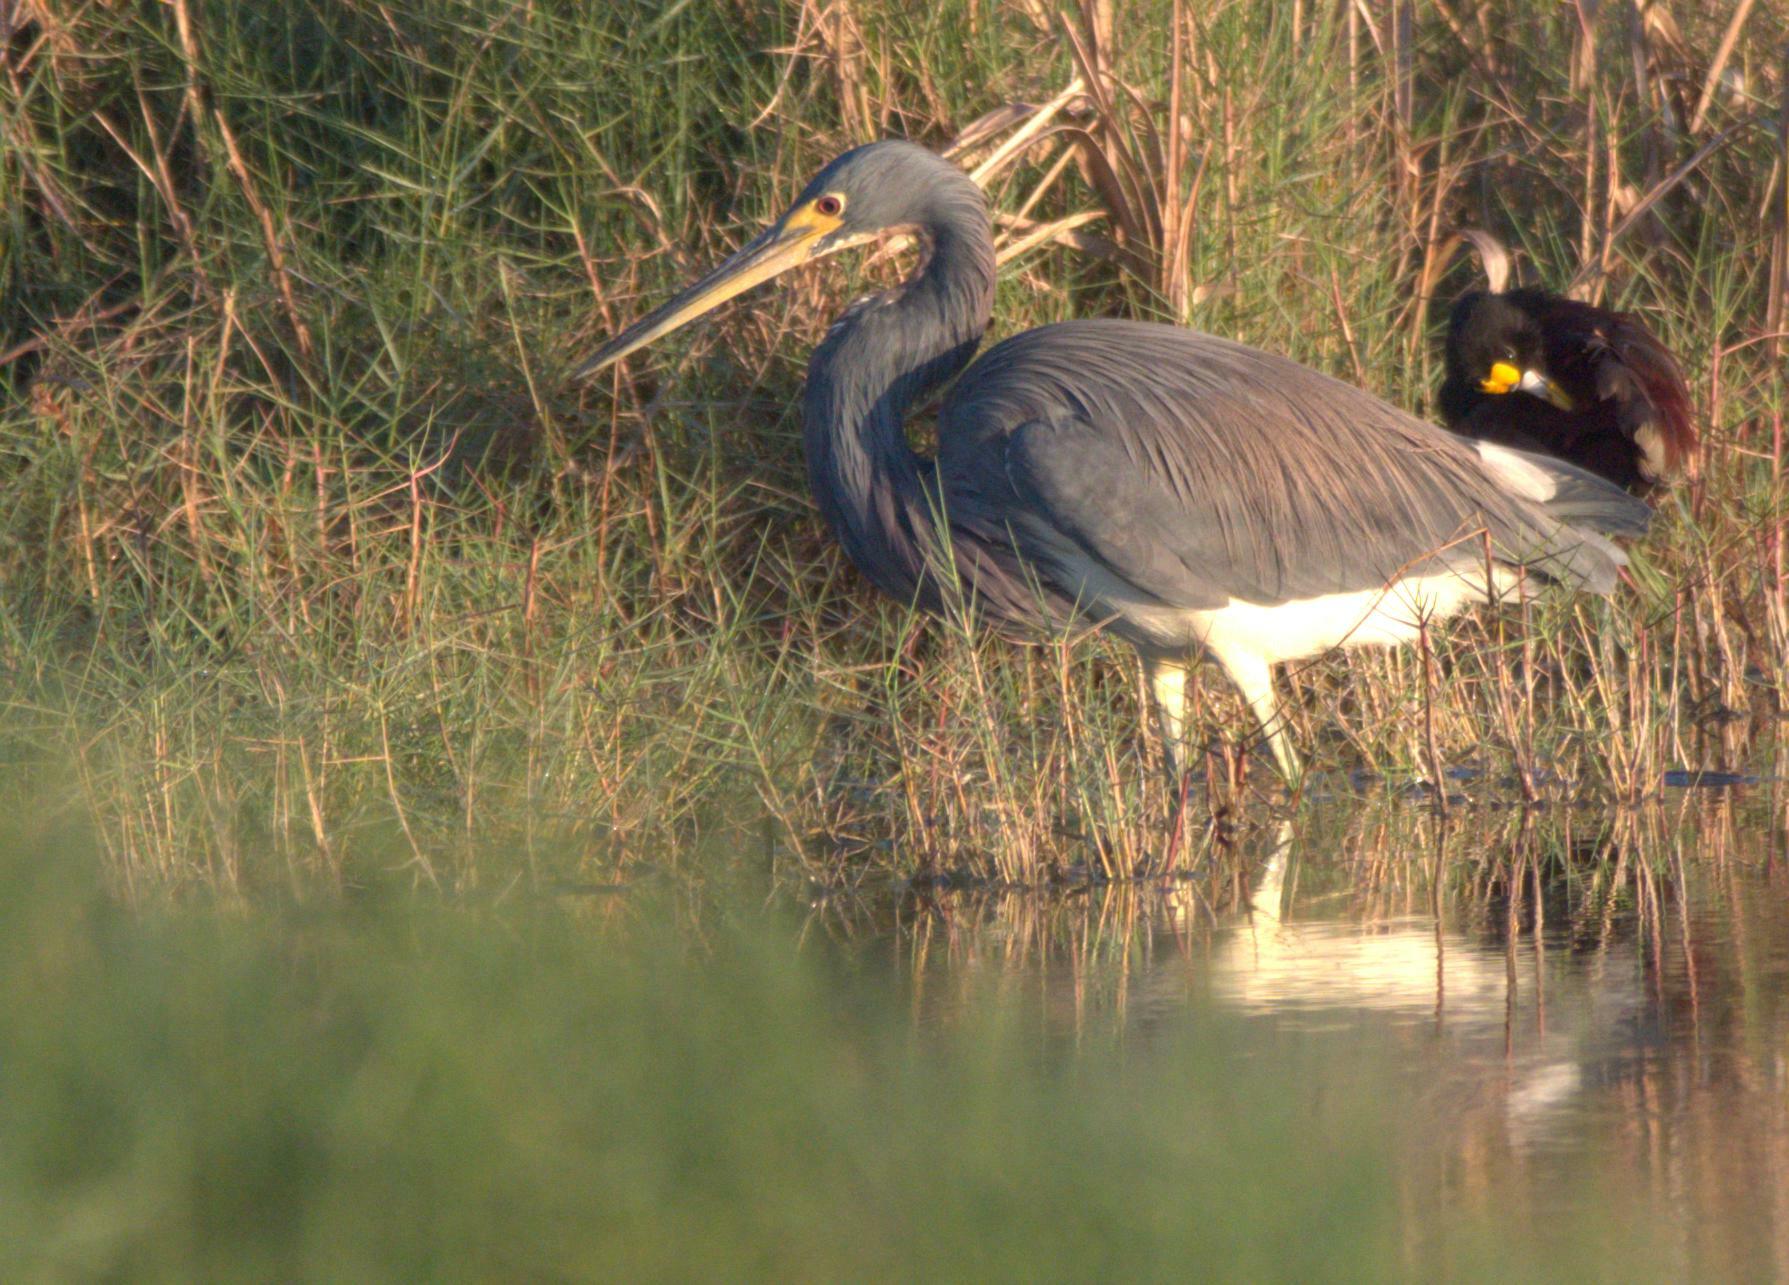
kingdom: Animalia
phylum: Chordata
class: Aves
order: Pelecaniformes
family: Ardeidae
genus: Egretta
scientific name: Egretta tricolor
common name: Tricolored heron
